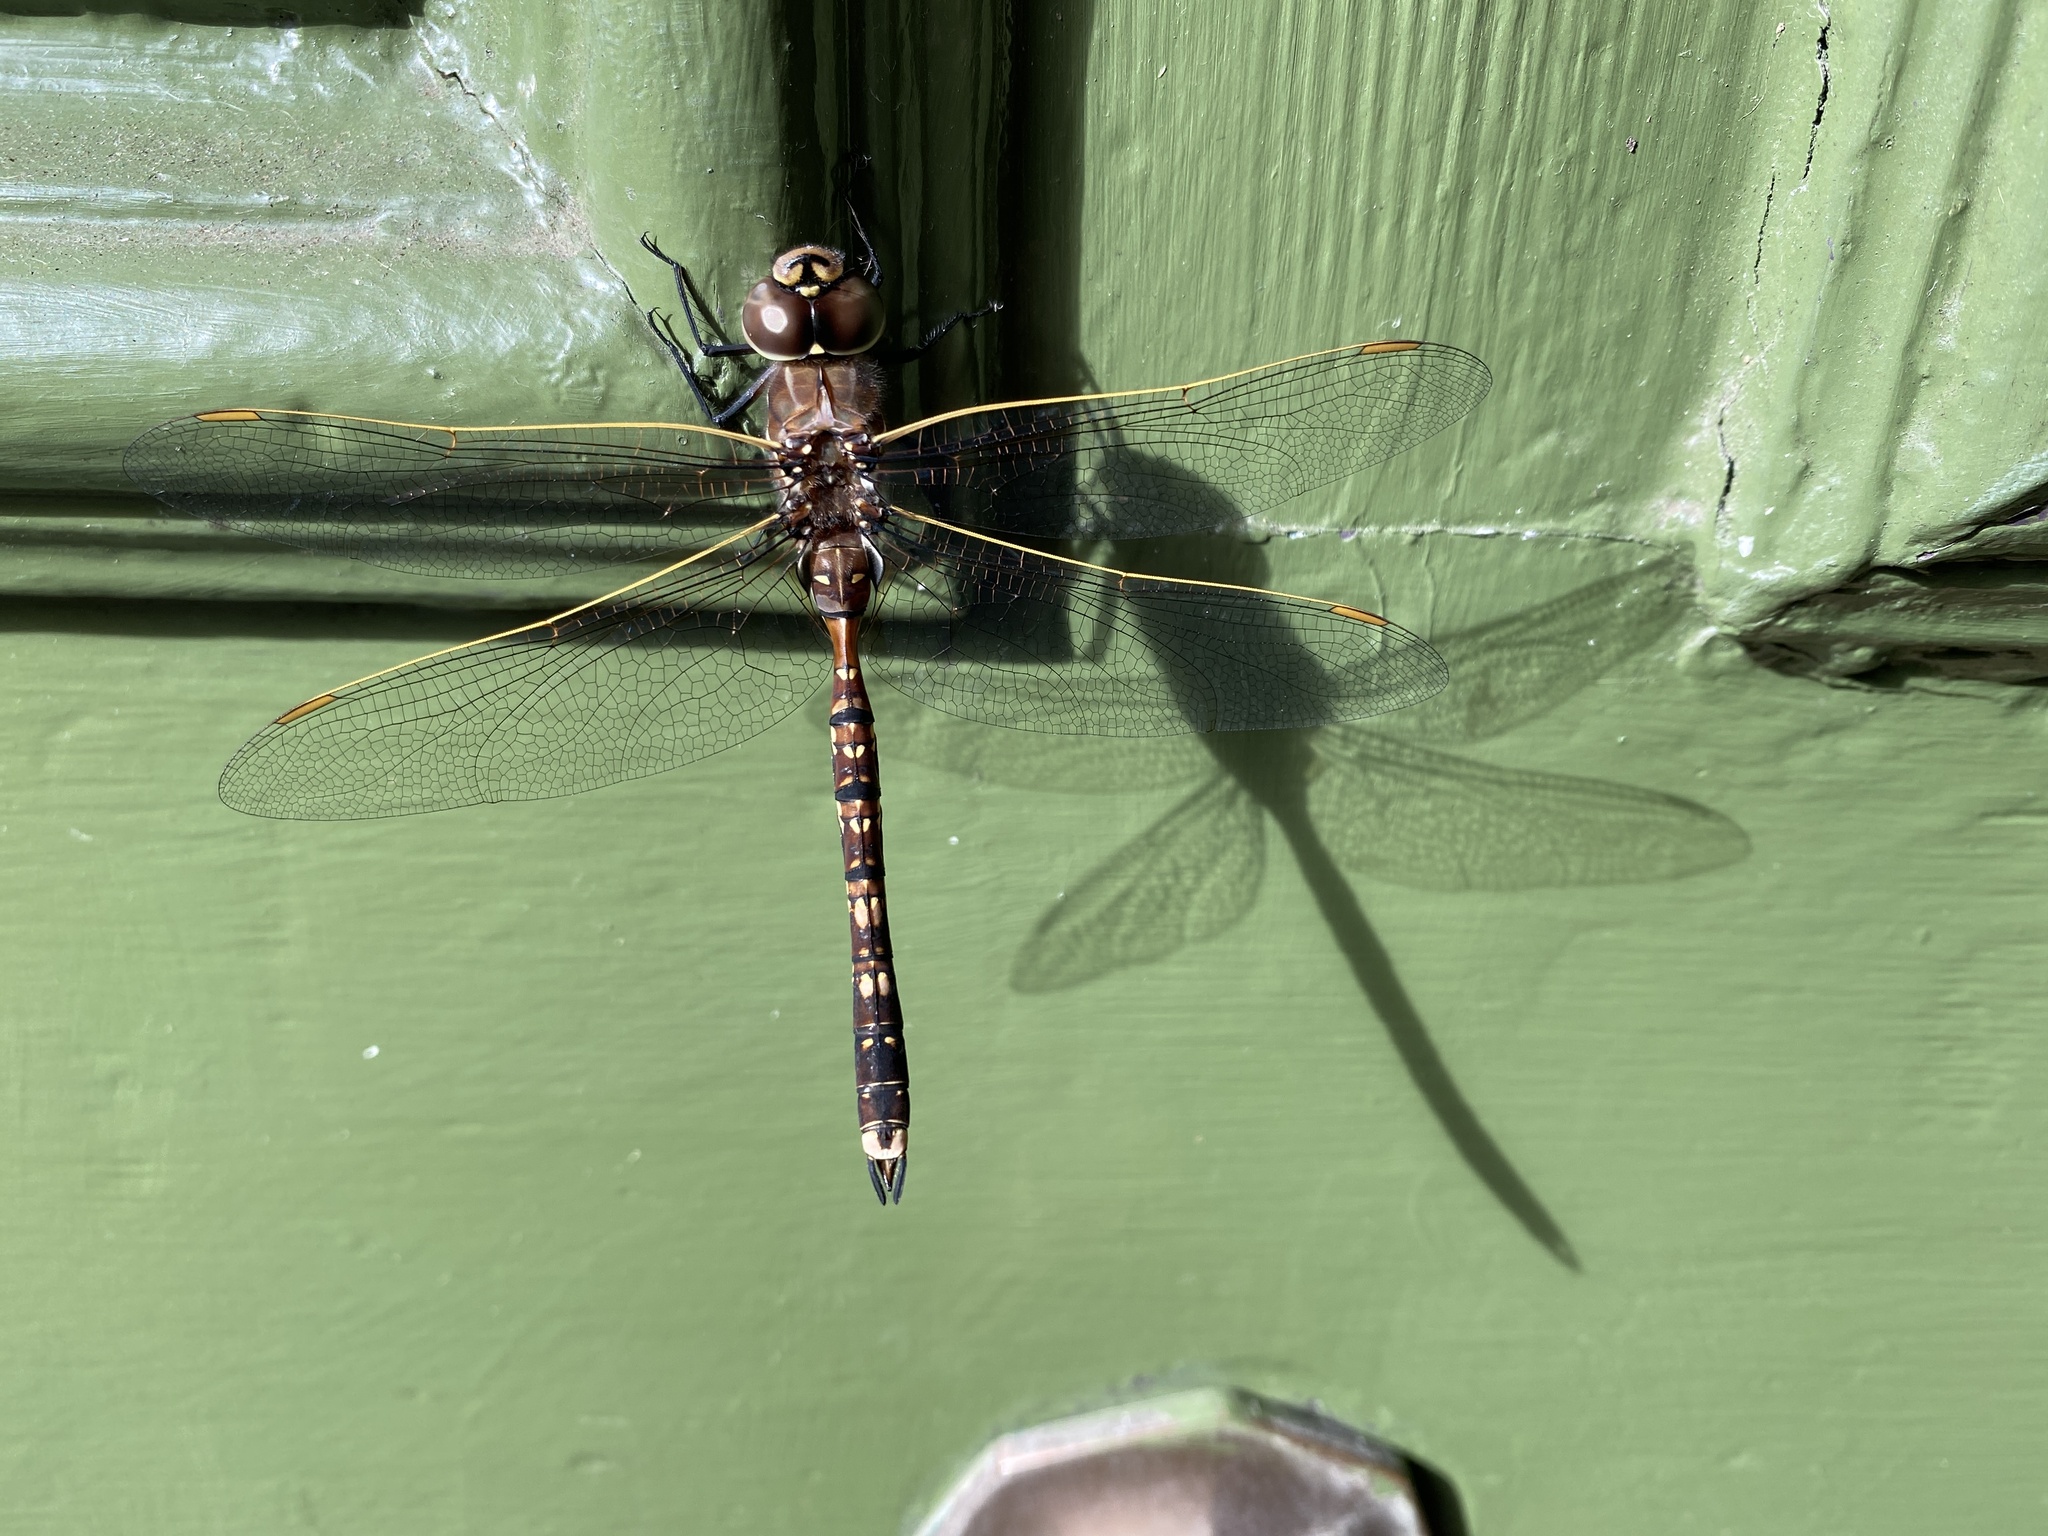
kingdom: Animalia
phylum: Arthropoda
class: Insecta
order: Odonata
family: Aeshnidae
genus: Aeshna
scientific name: Aeshna brevistyla
